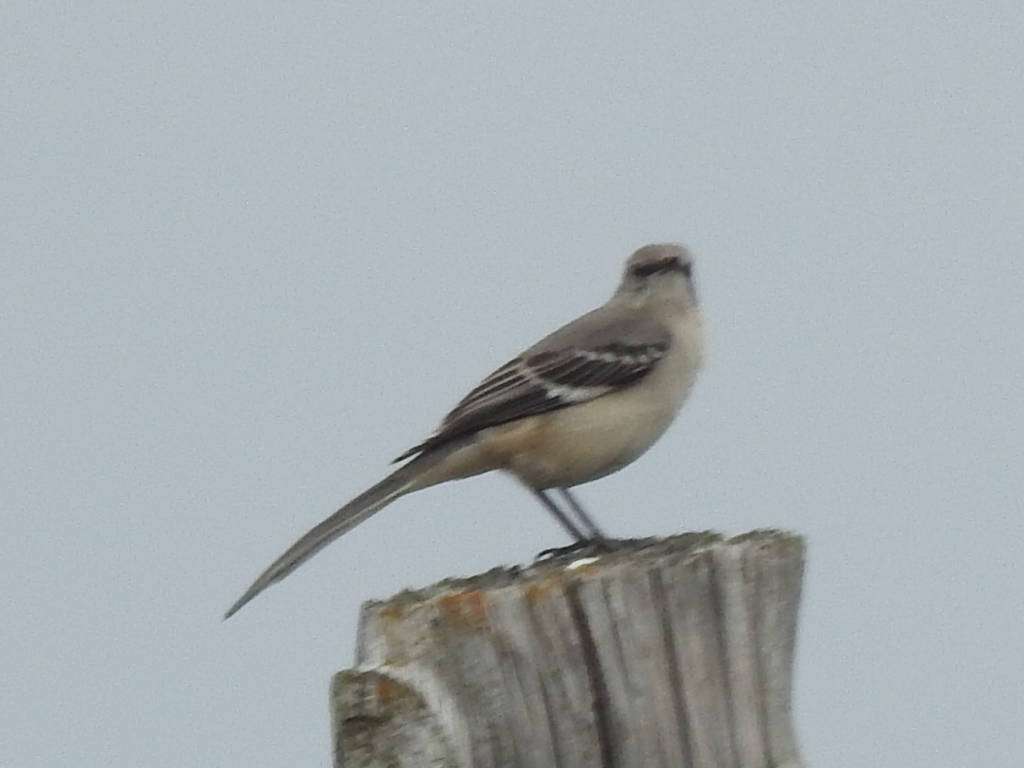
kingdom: Animalia
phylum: Chordata
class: Aves
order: Passeriformes
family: Mimidae
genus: Mimus
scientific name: Mimus polyglottos
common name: Northern mockingbird
